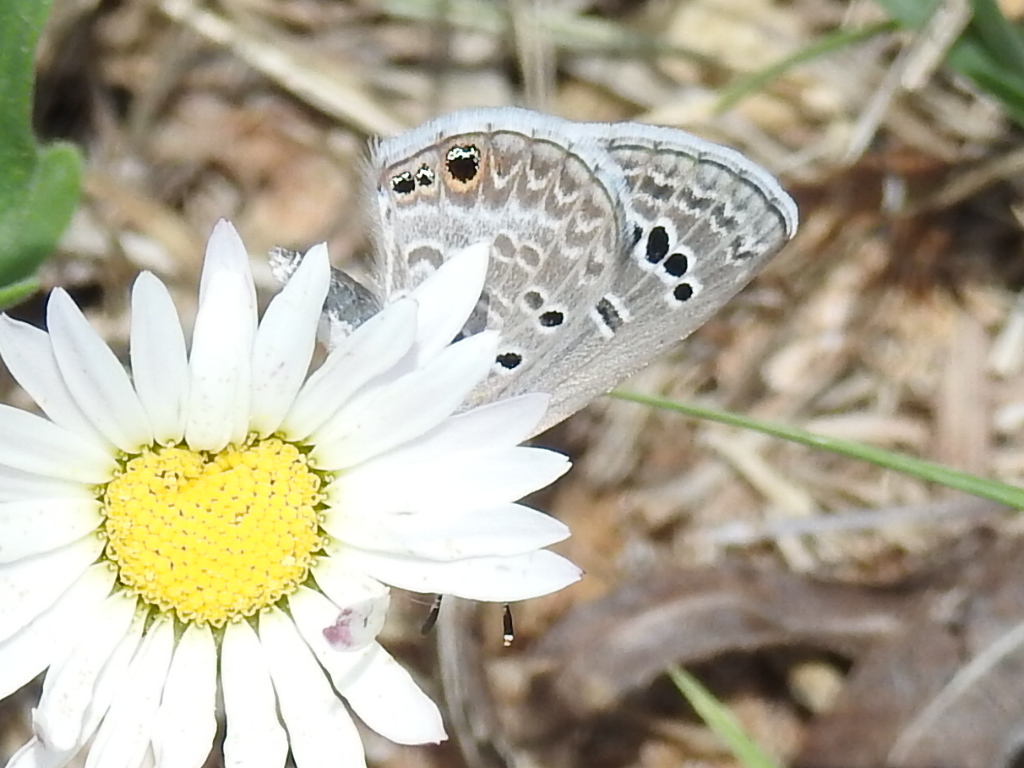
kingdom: Animalia
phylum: Arthropoda
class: Insecta
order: Lepidoptera
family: Lycaenidae
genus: Echinargus
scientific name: Echinargus isola
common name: Reakirt's blue
